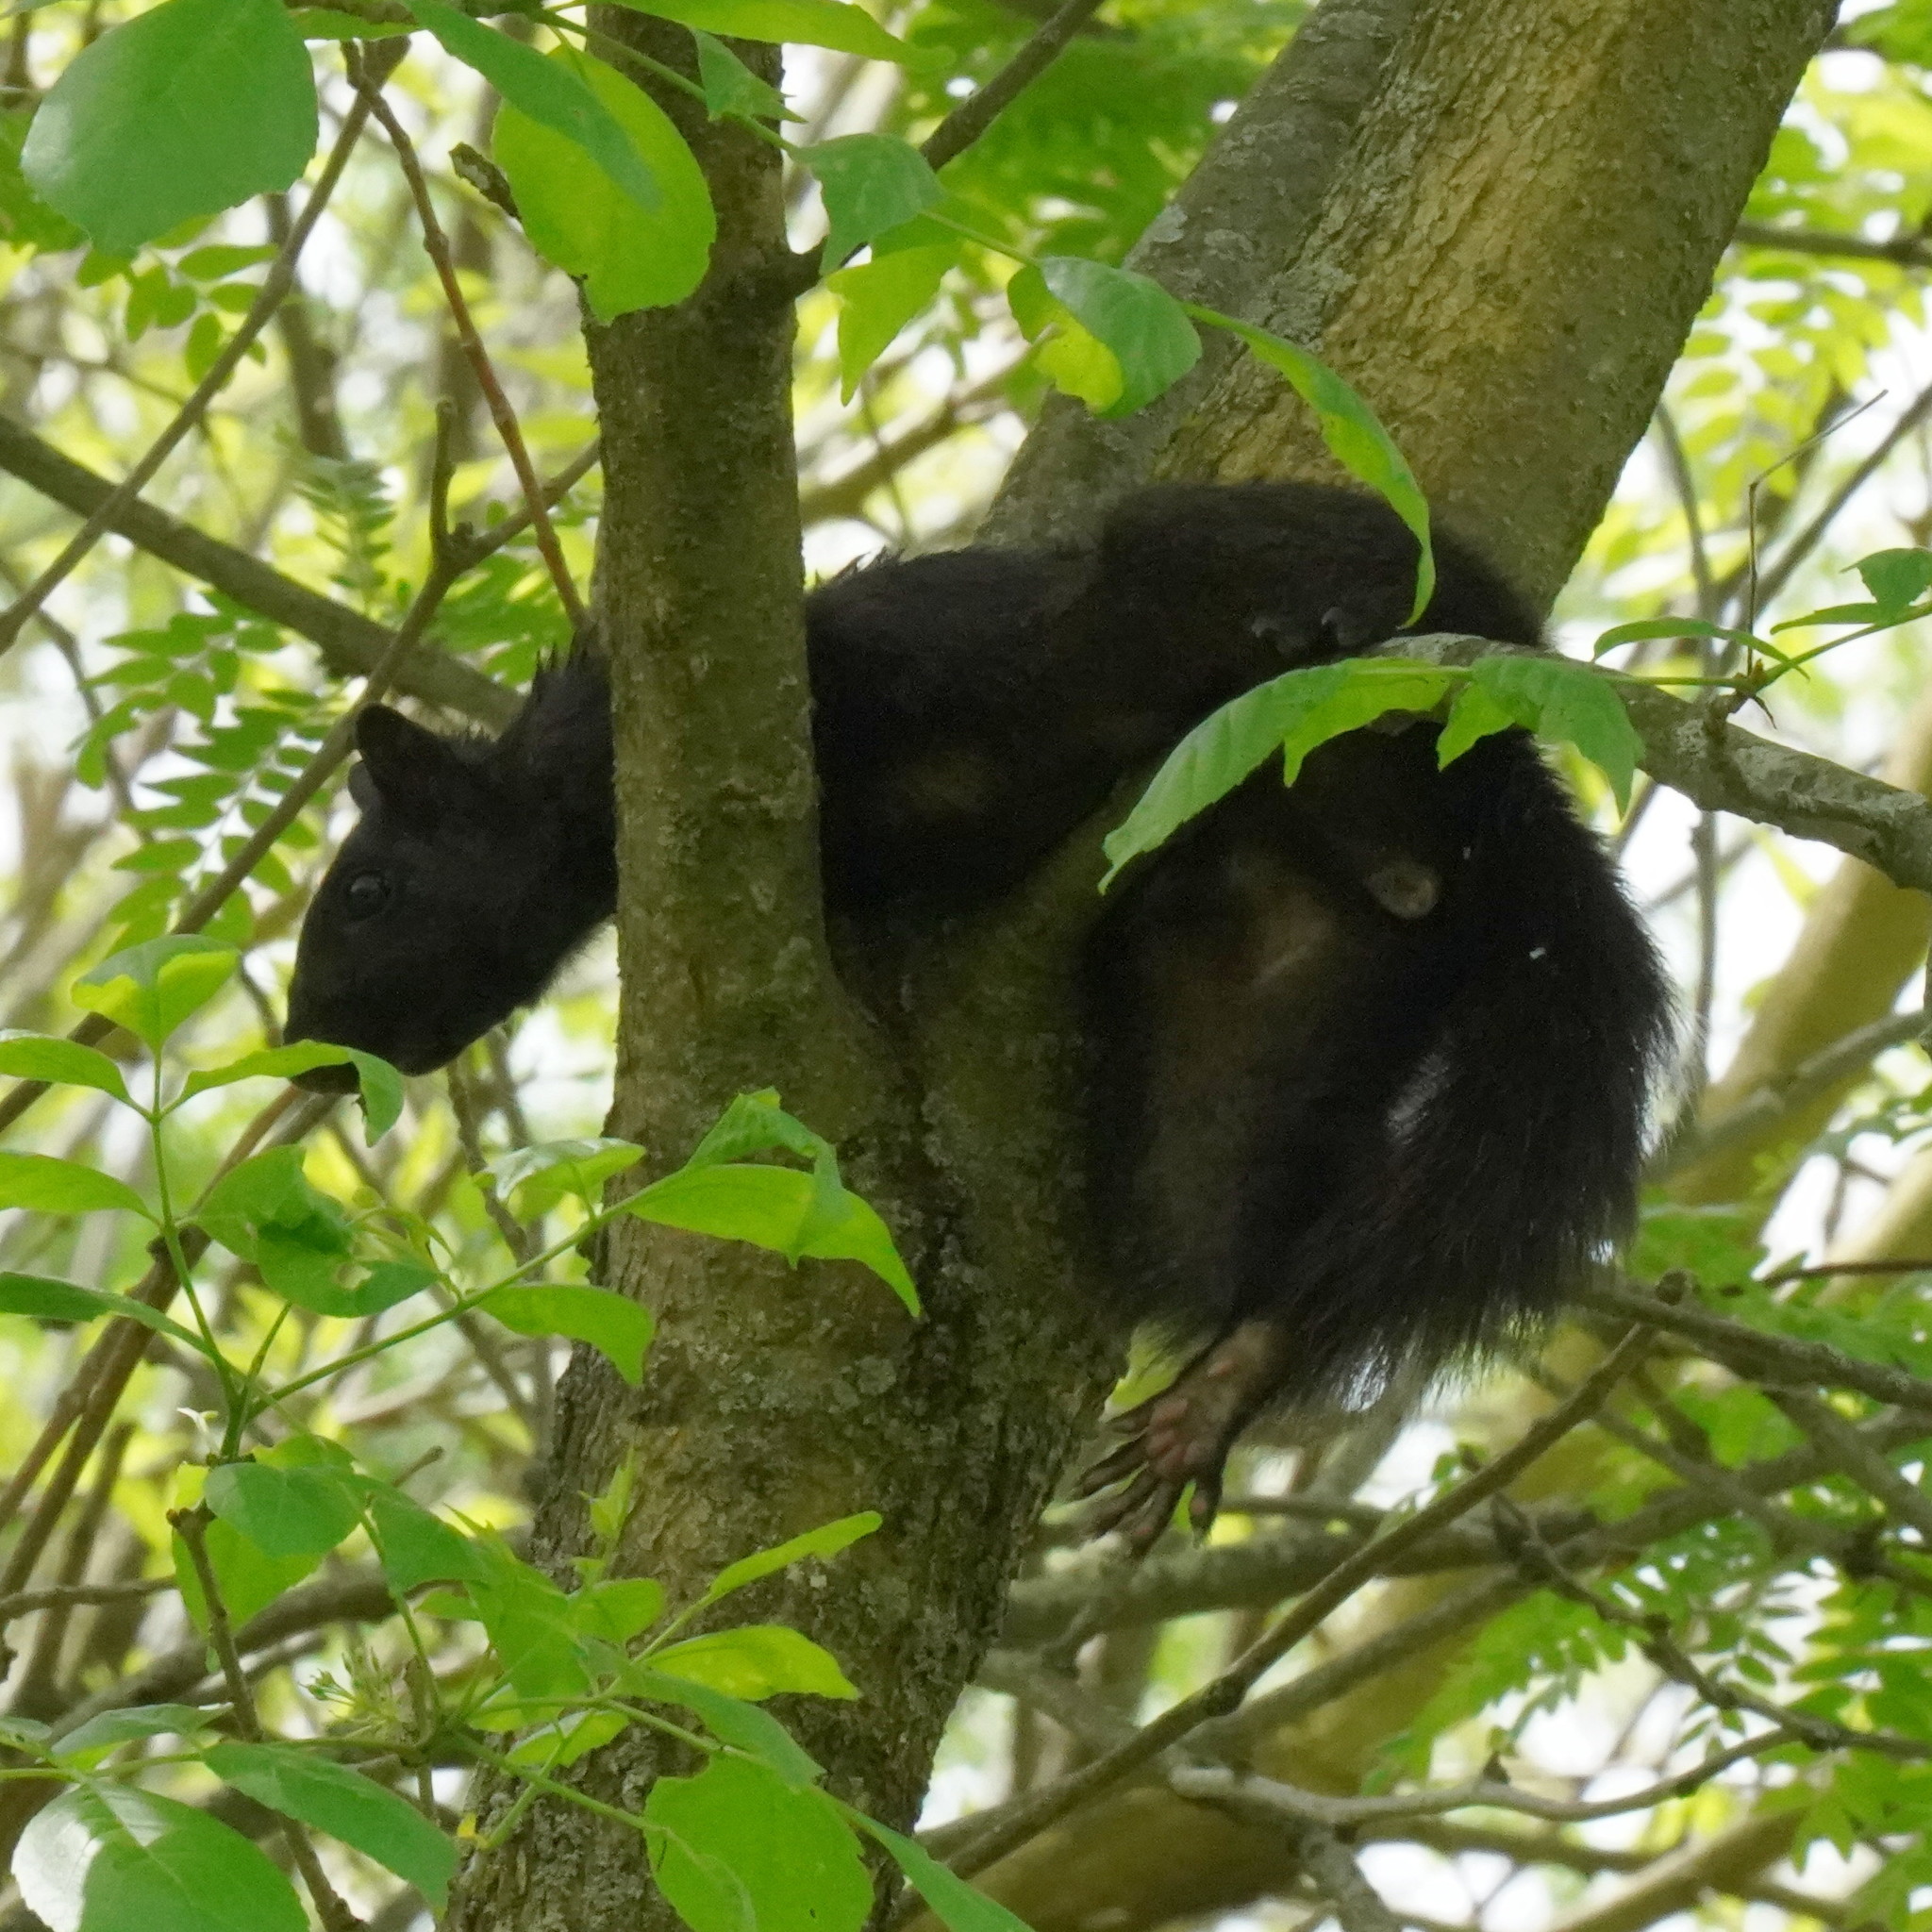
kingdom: Animalia
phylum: Chordata
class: Mammalia
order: Rodentia
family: Sciuridae
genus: Sciurus
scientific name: Sciurus carolinensis
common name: Eastern gray squirrel
